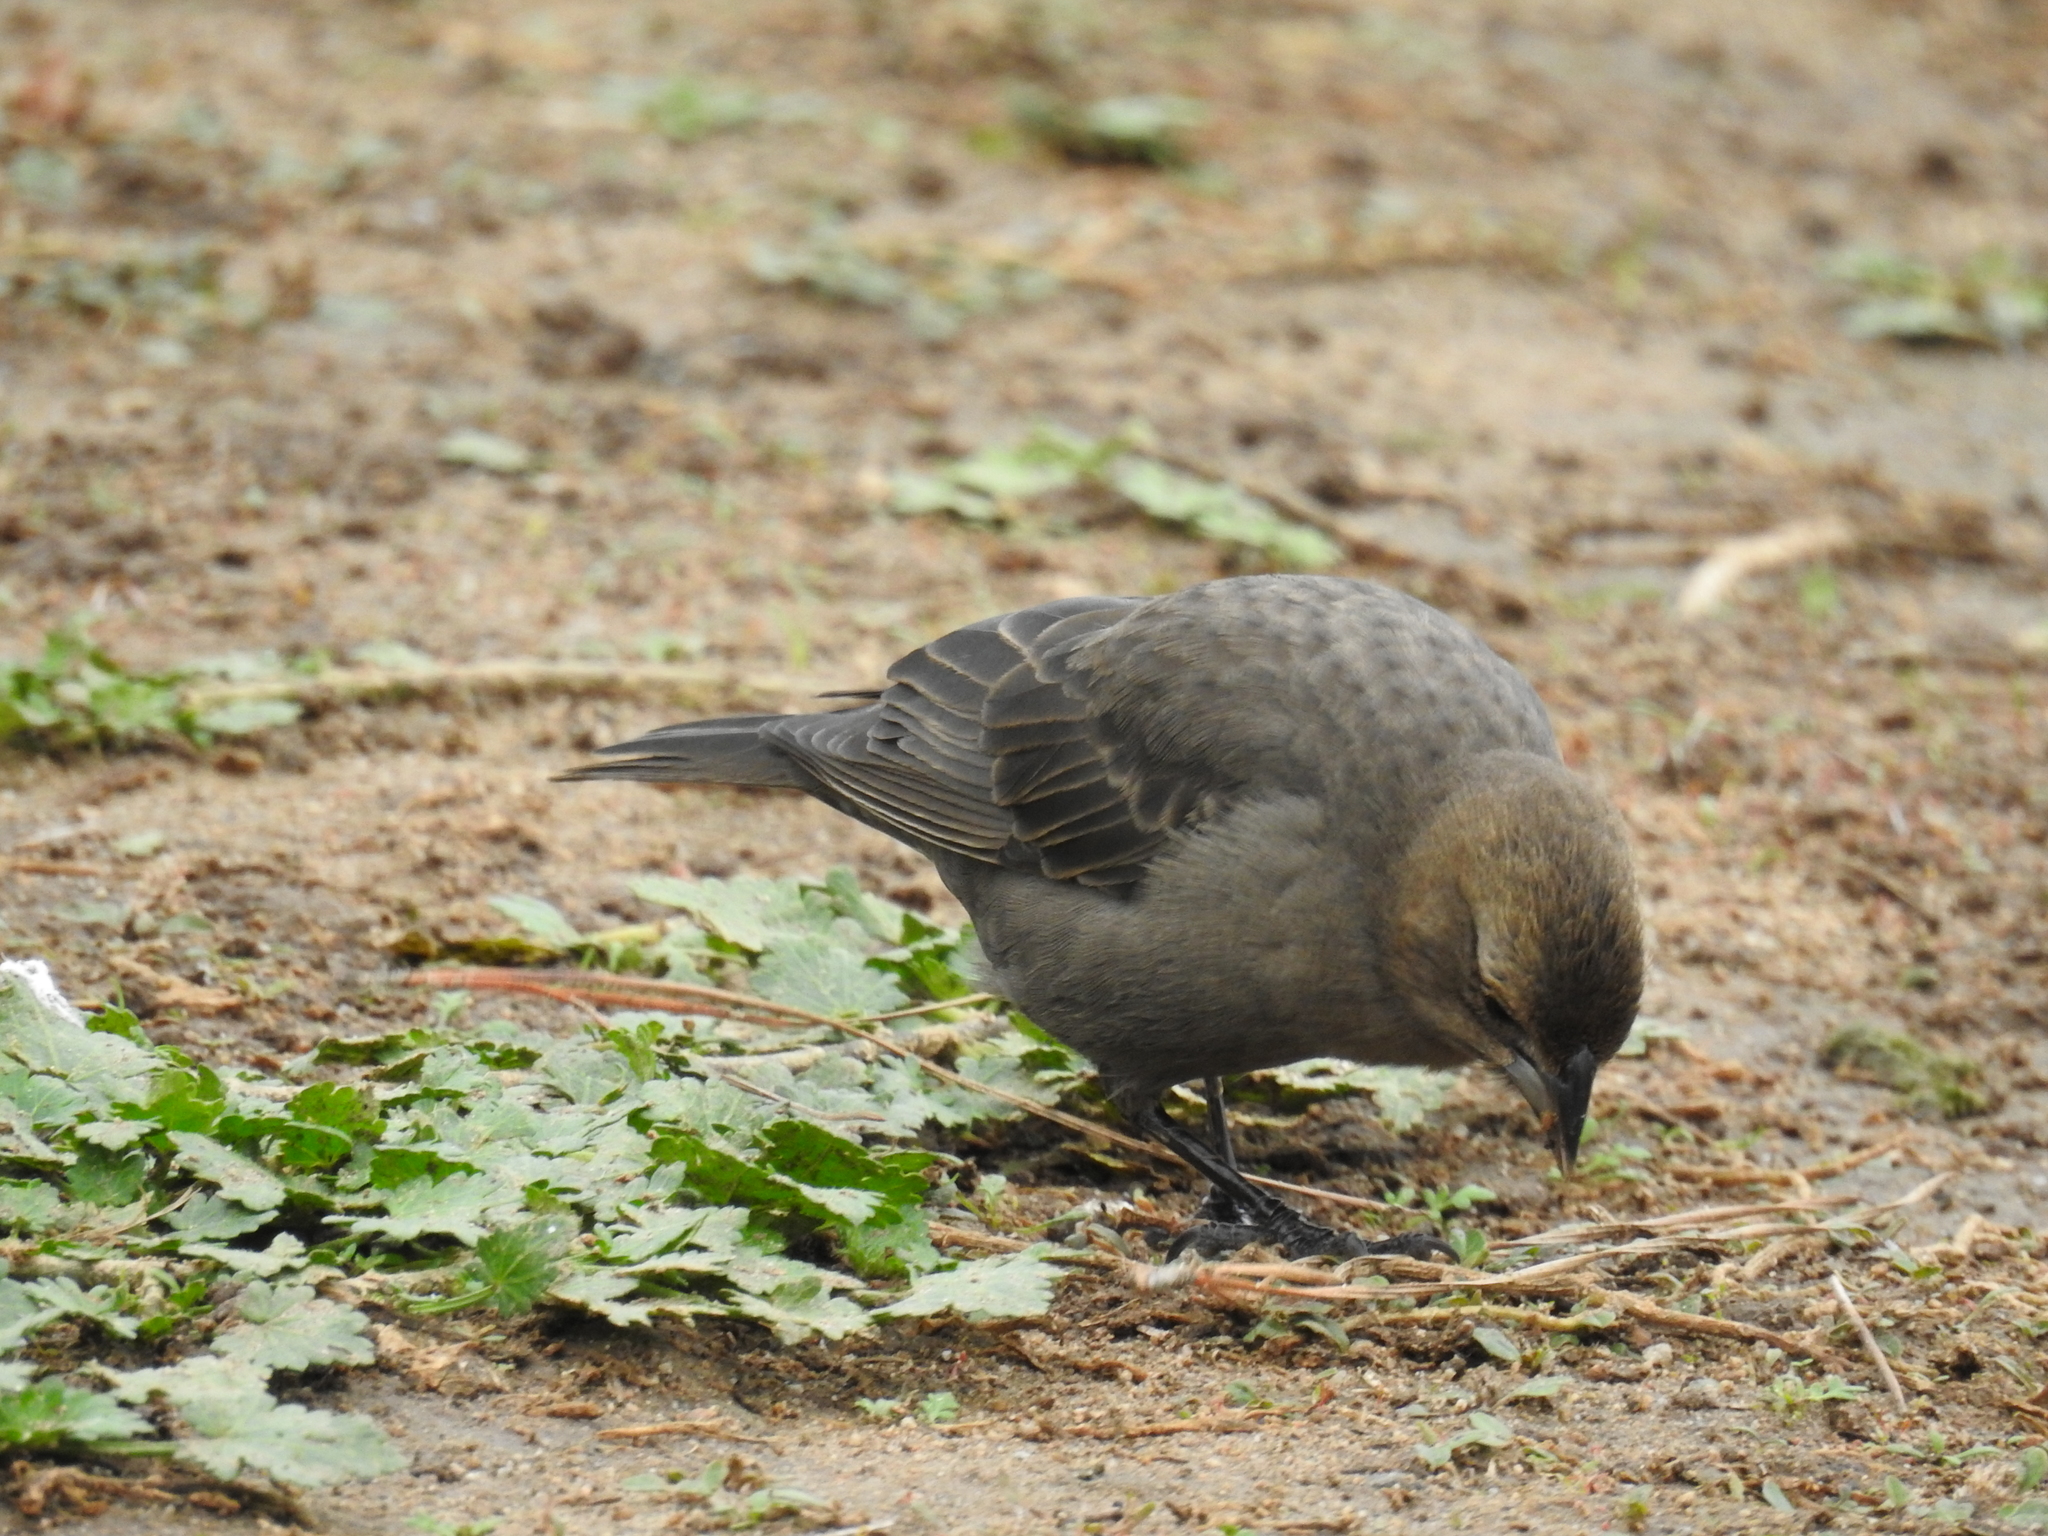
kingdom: Animalia
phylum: Chordata
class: Aves
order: Passeriformes
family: Icteridae
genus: Molothrus
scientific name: Molothrus ater
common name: Brown-headed cowbird
